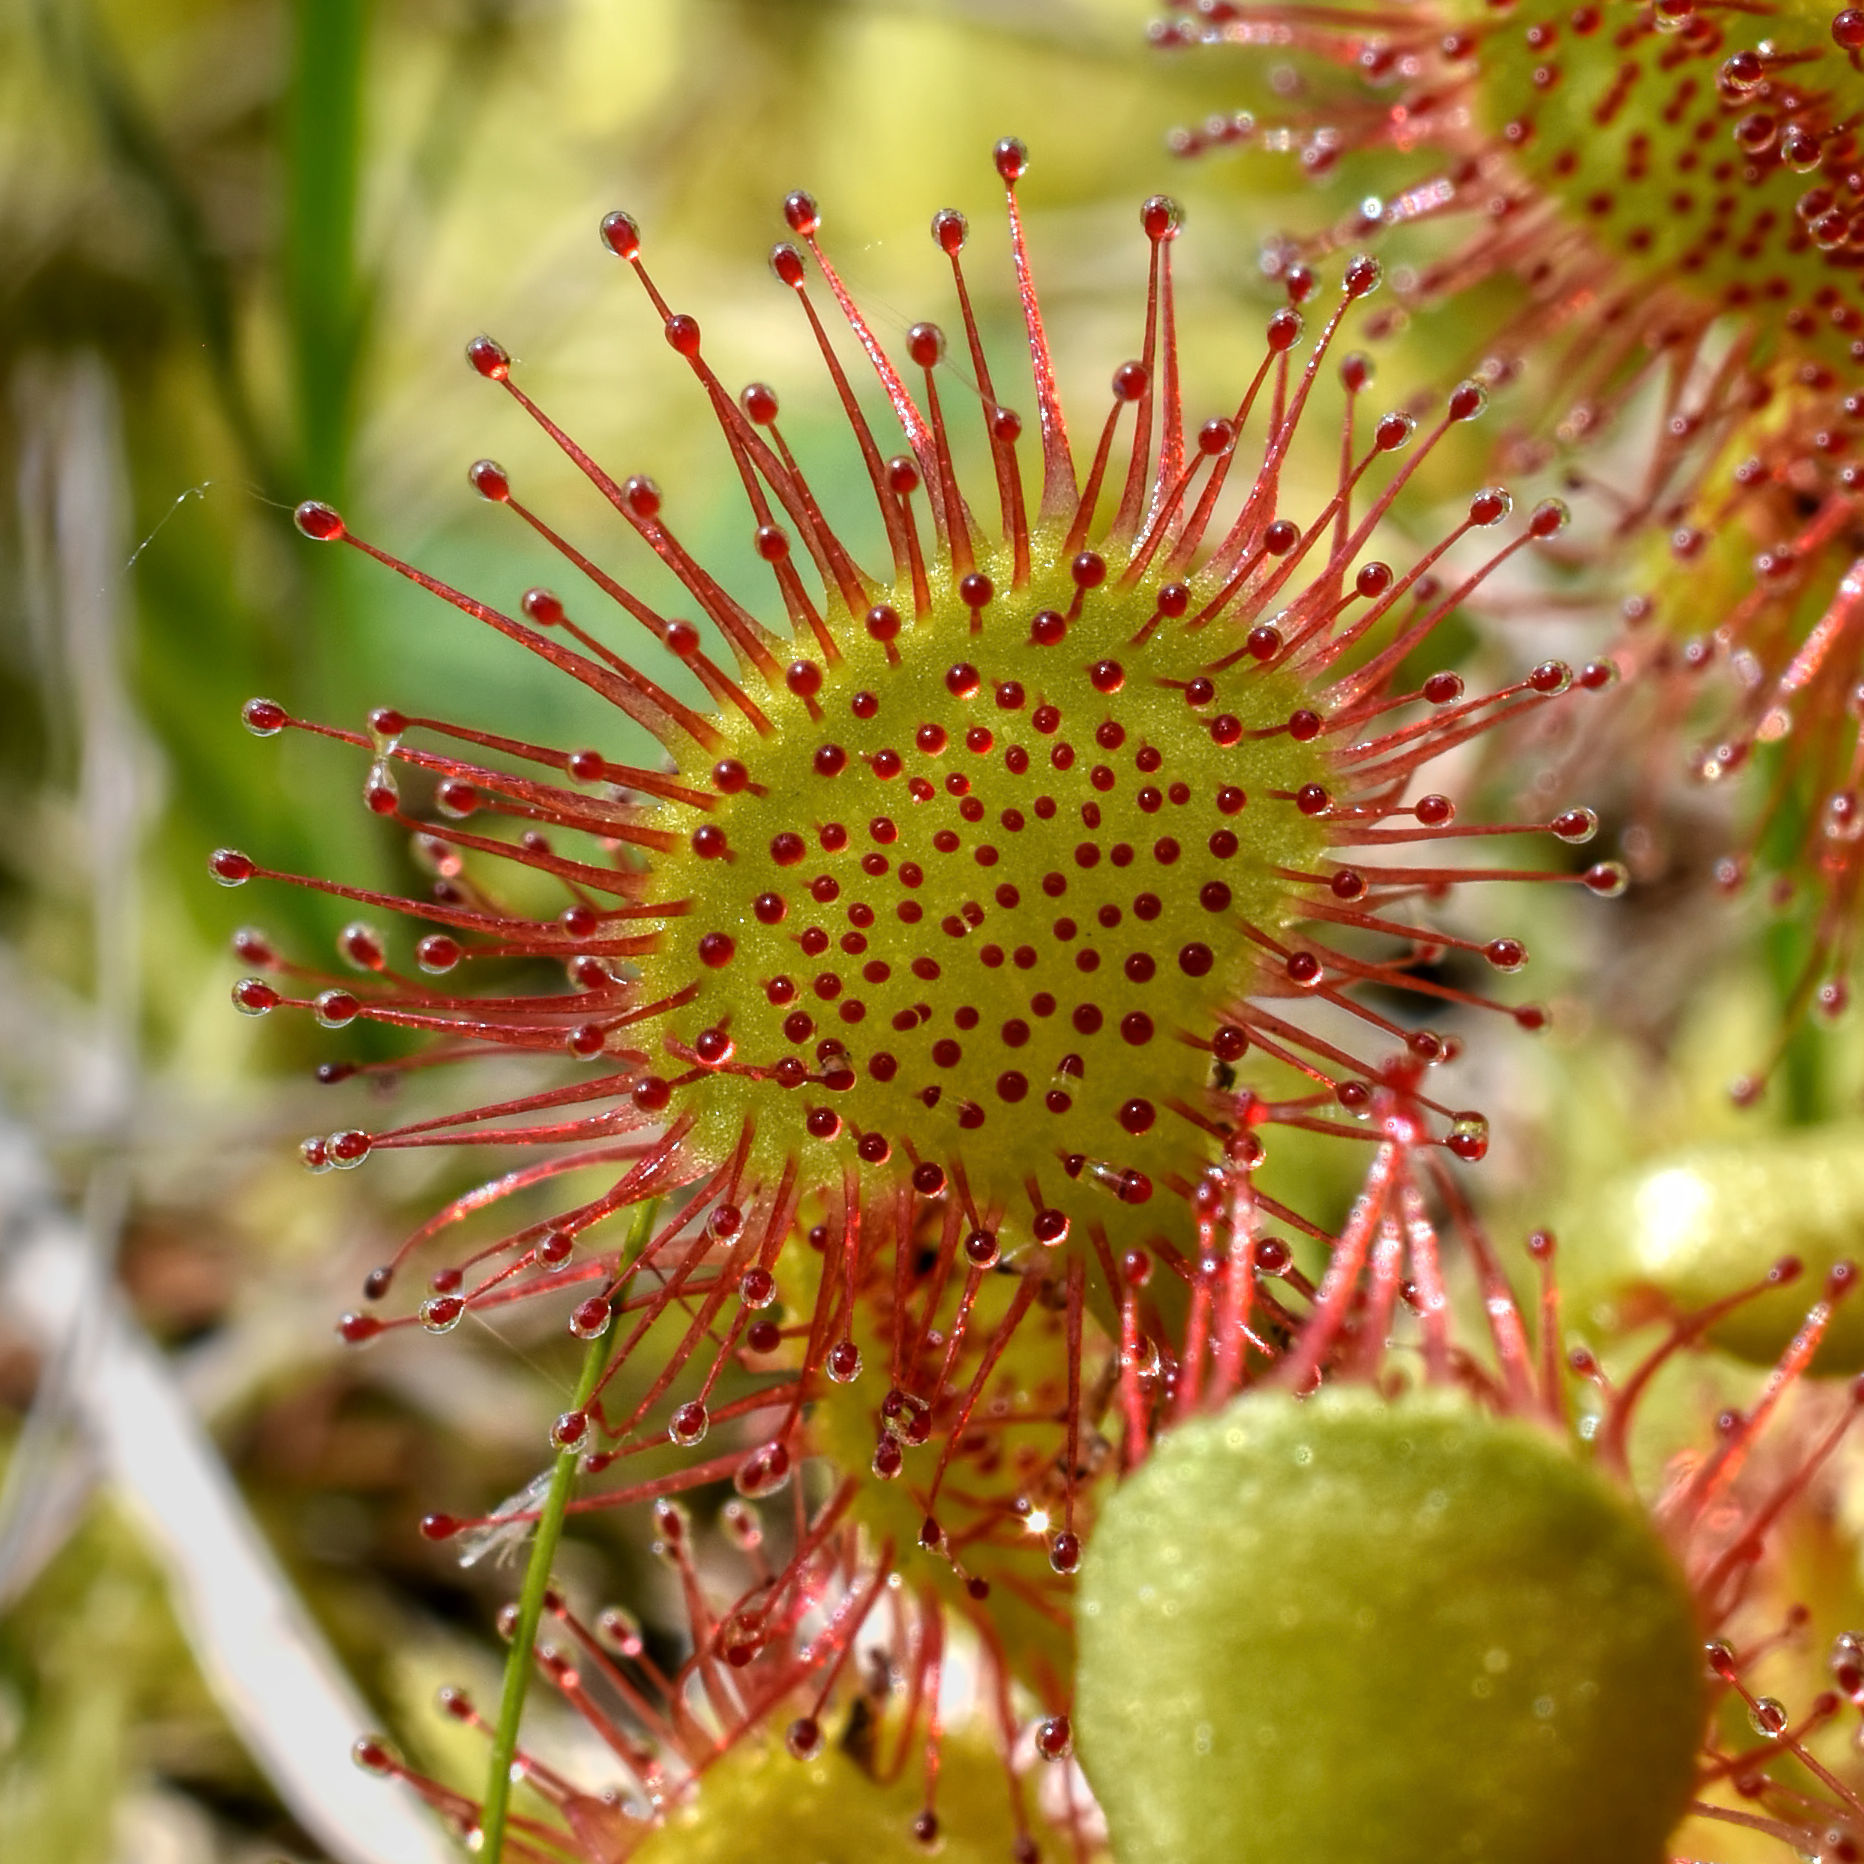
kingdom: Plantae
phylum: Tracheophyta
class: Magnoliopsida
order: Caryophyllales
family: Droseraceae
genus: Drosera
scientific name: Drosera rotundifolia
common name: Round-leaved sundew
